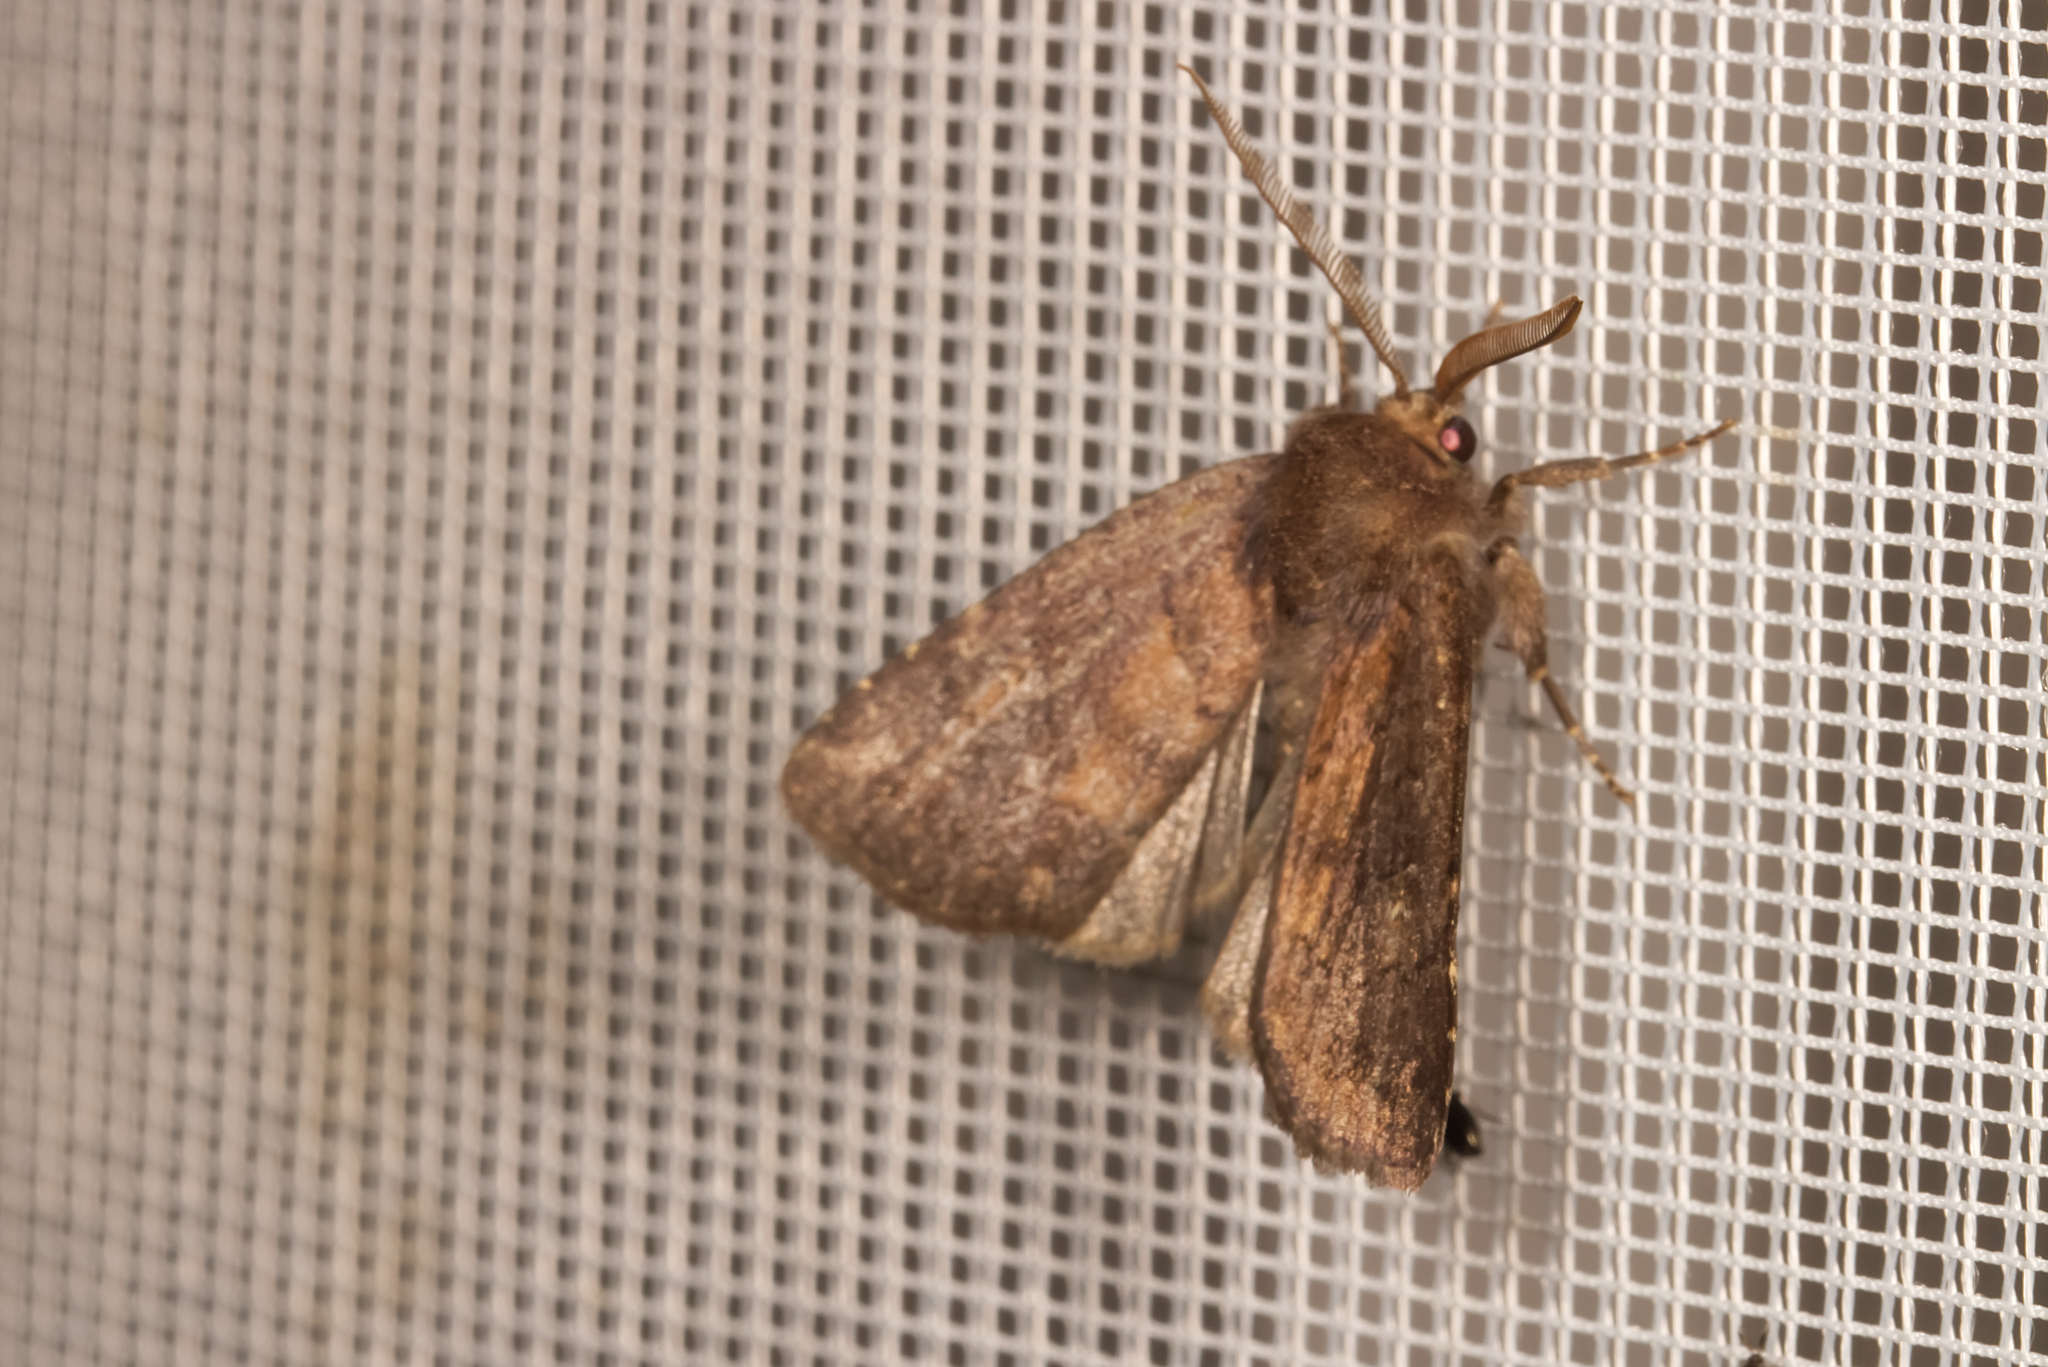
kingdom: Animalia
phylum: Arthropoda
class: Insecta
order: Lepidoptera
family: Noctuidae
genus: Charanyca
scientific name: Charanyca ferruginea
